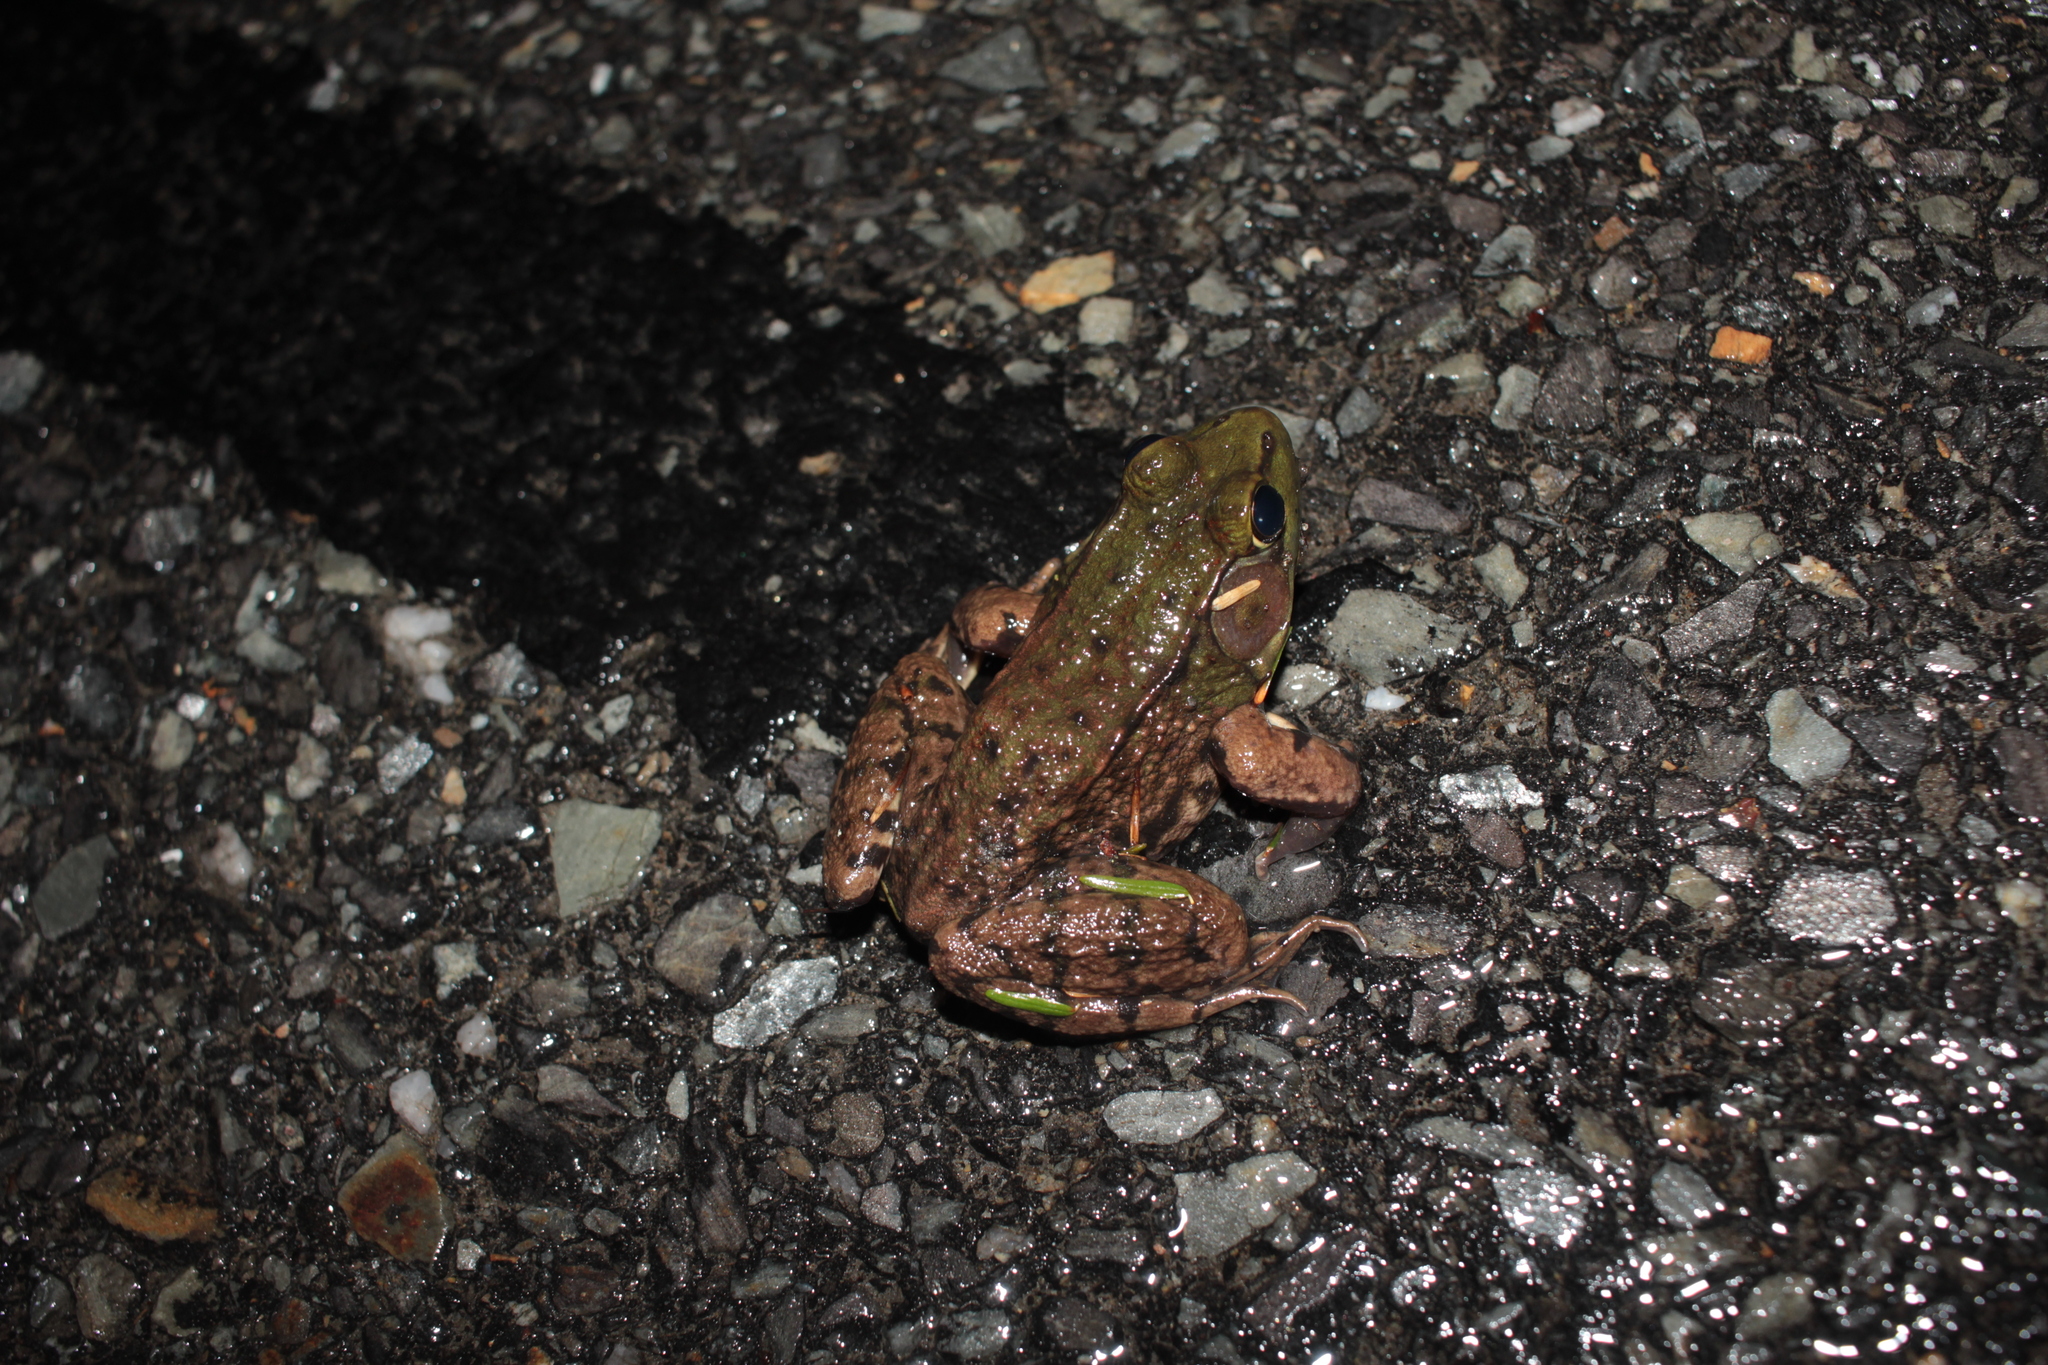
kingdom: Animalia
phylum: Chordata
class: Amphibia
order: Anura
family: Ranidae
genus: Lithobates
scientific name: Lithobates clamitans
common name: Green frog
